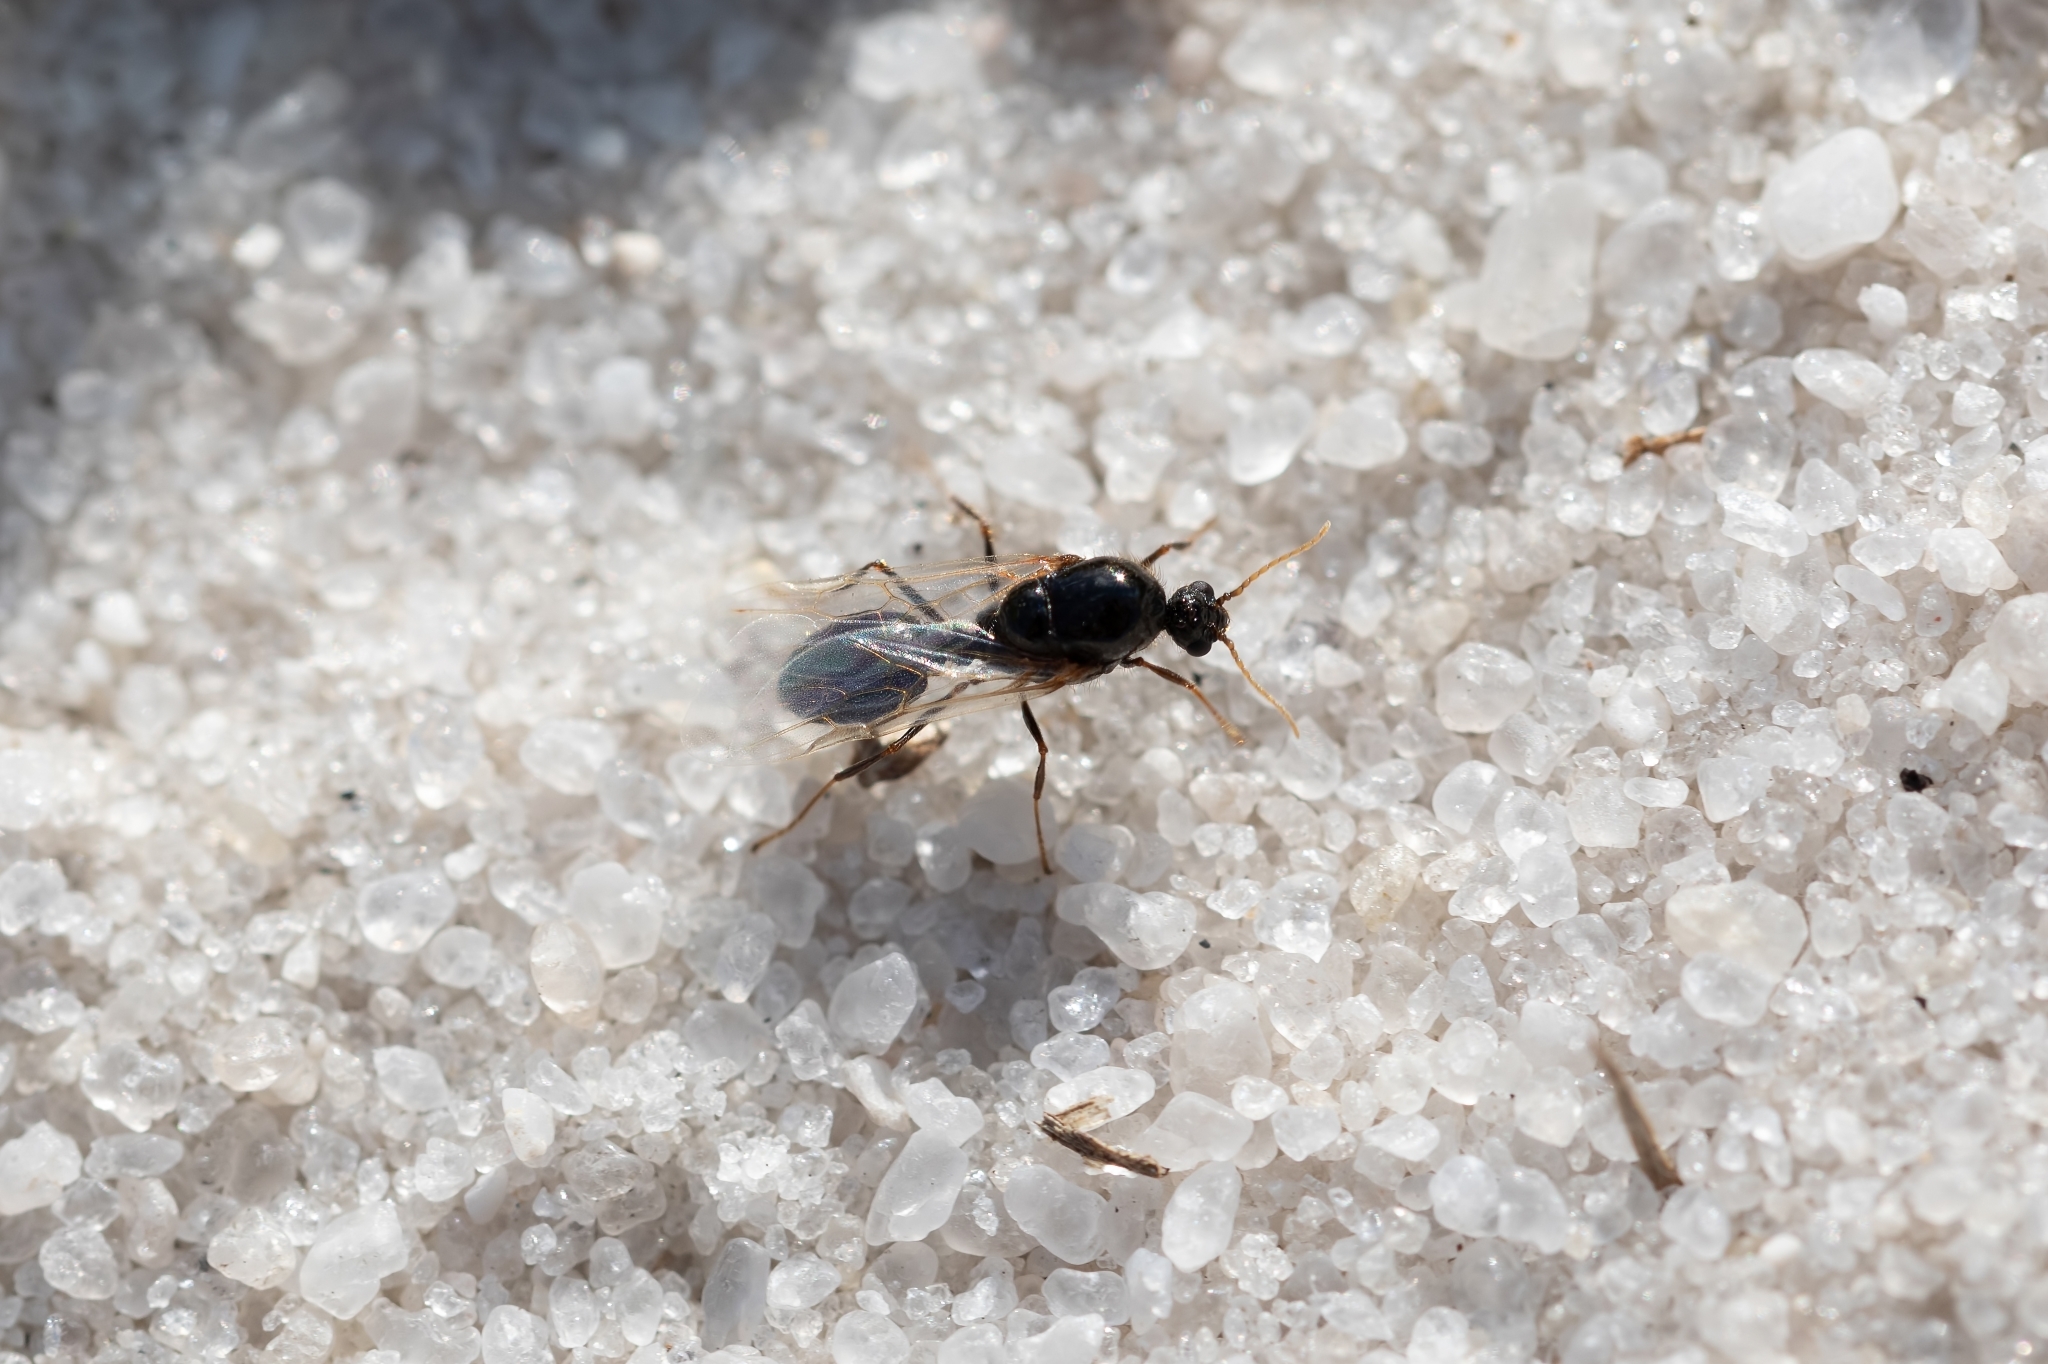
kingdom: Animalia
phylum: Arthropoda
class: Insecta
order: Hymenoptera
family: Formicidae
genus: Solenopsis
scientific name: Solenopsis invicta
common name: Red imported fire ant
